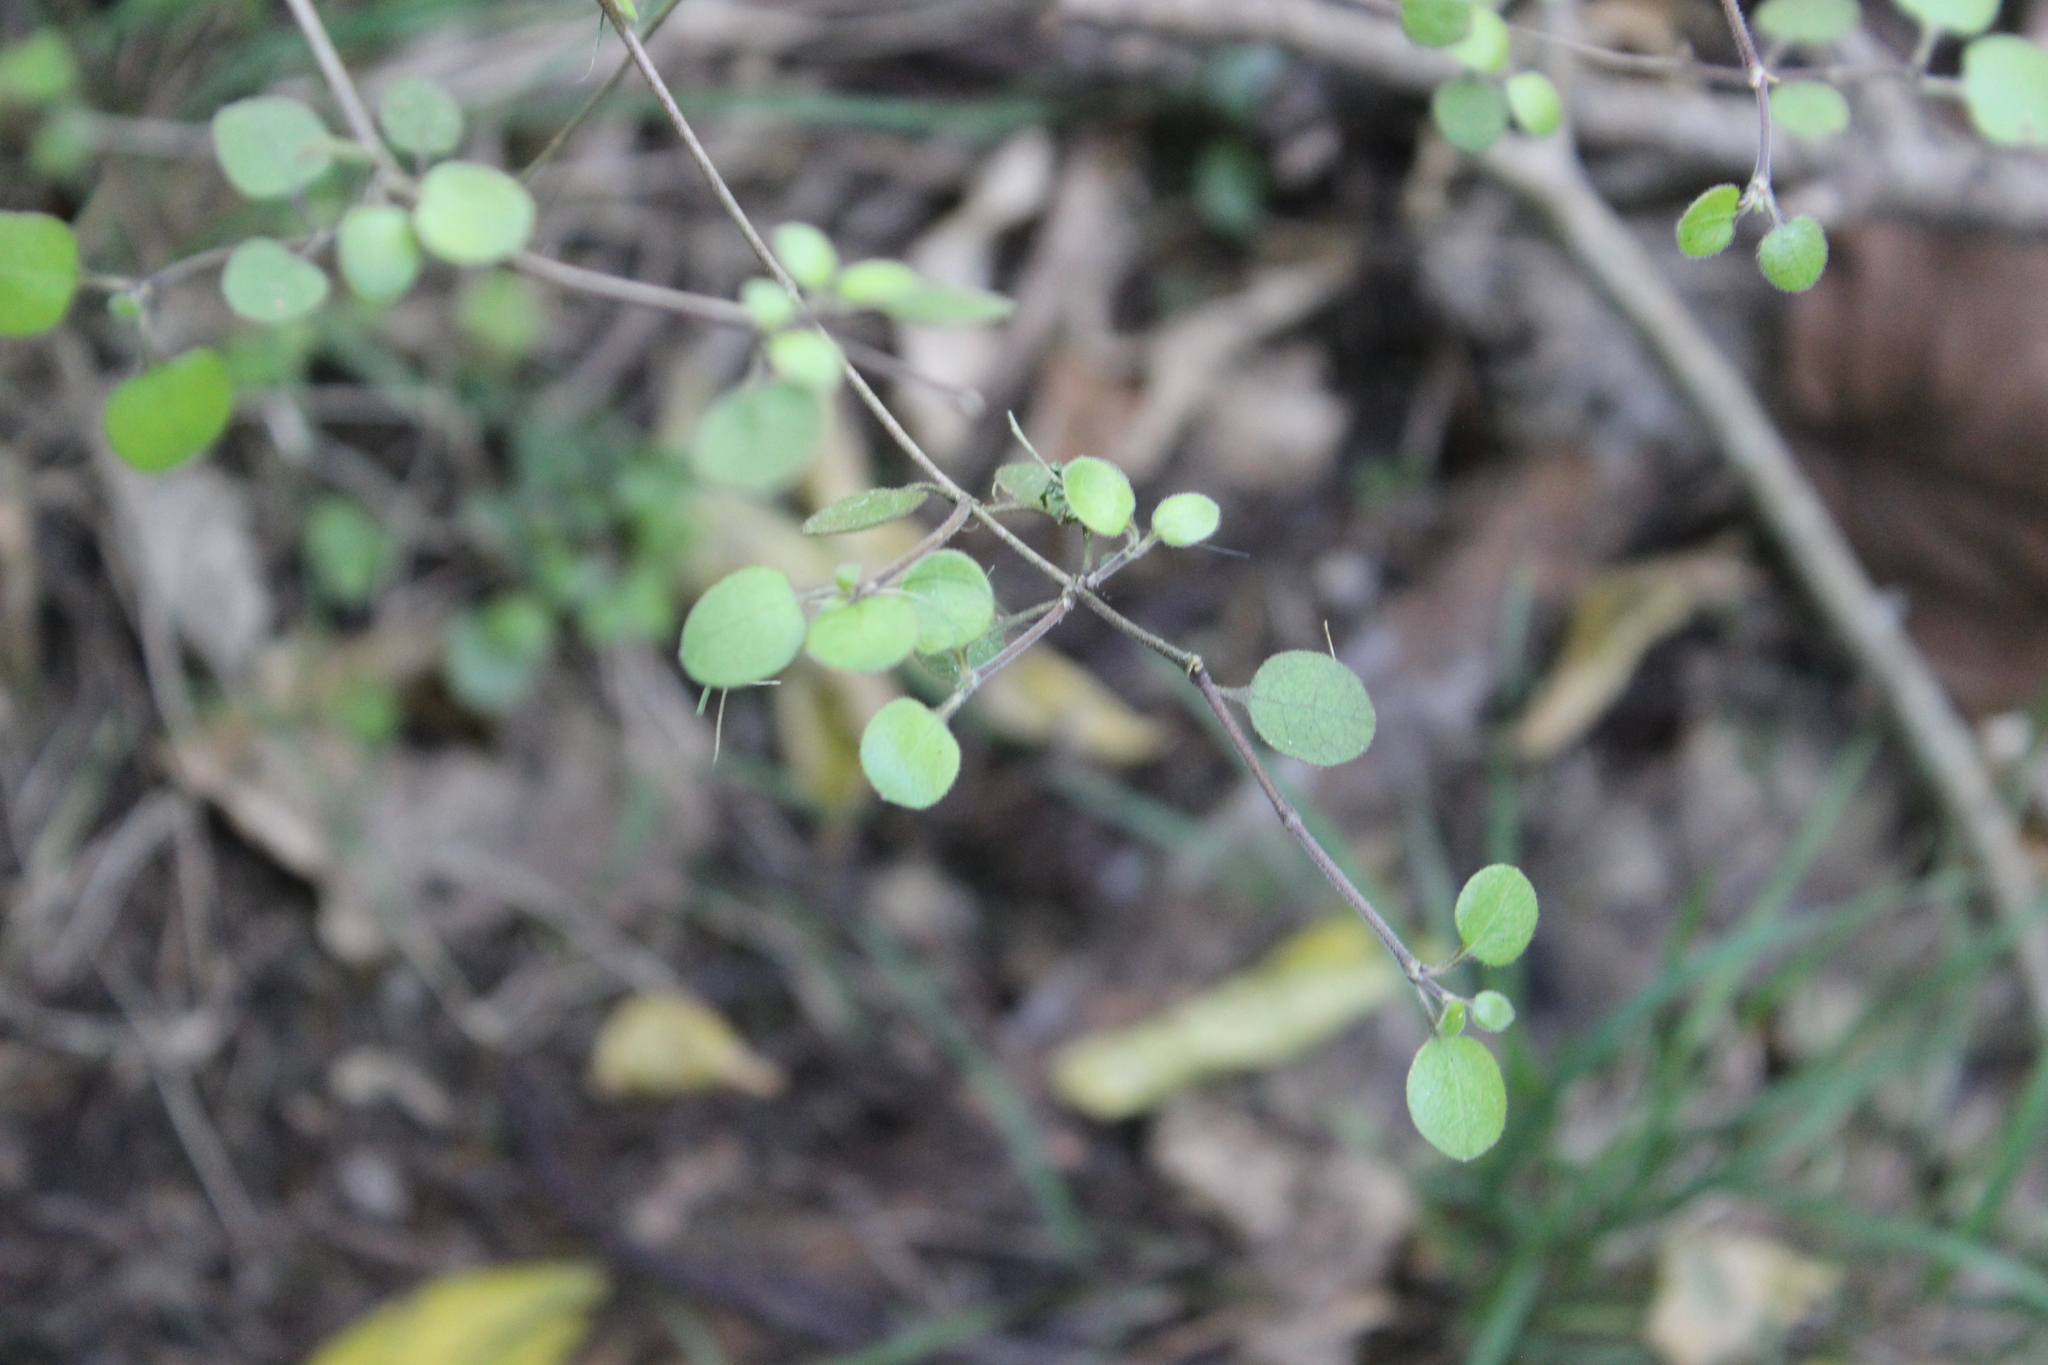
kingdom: Plantae
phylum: Tracheophyta
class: Magnoliopsida
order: Gentianales
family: Rubiaceae
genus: Coprosma
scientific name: Coprosma crassifolia
